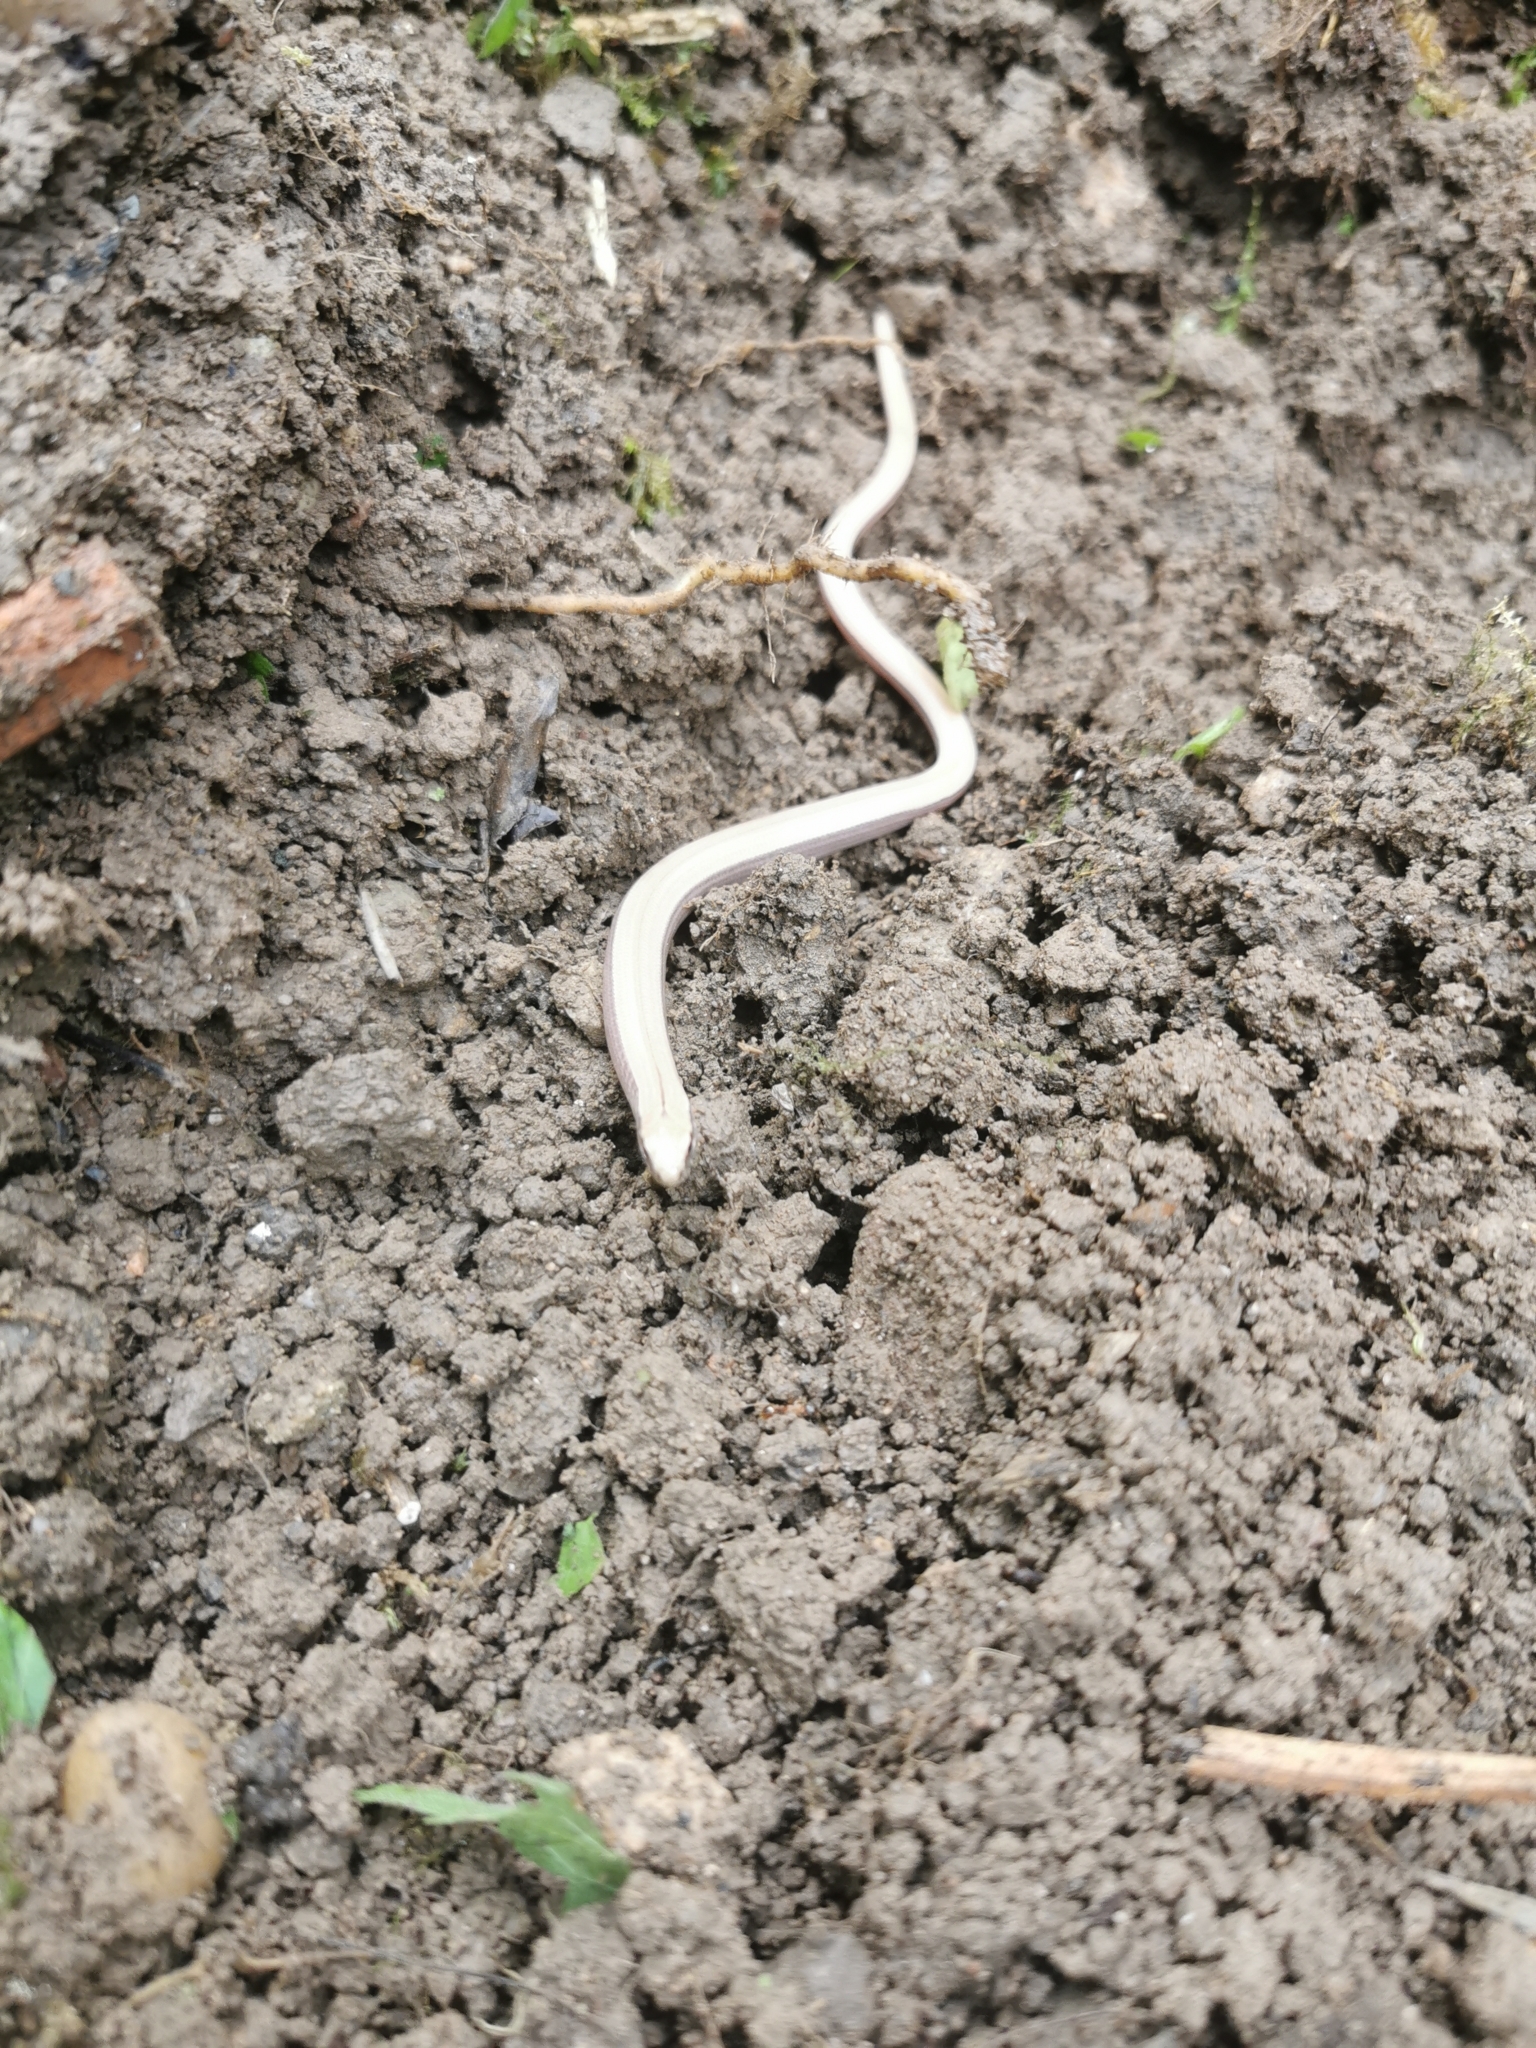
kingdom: Animalia
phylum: Chordata
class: Squamata
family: Anguidae
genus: Anguis
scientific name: Anguis fragilis
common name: Slow worm
